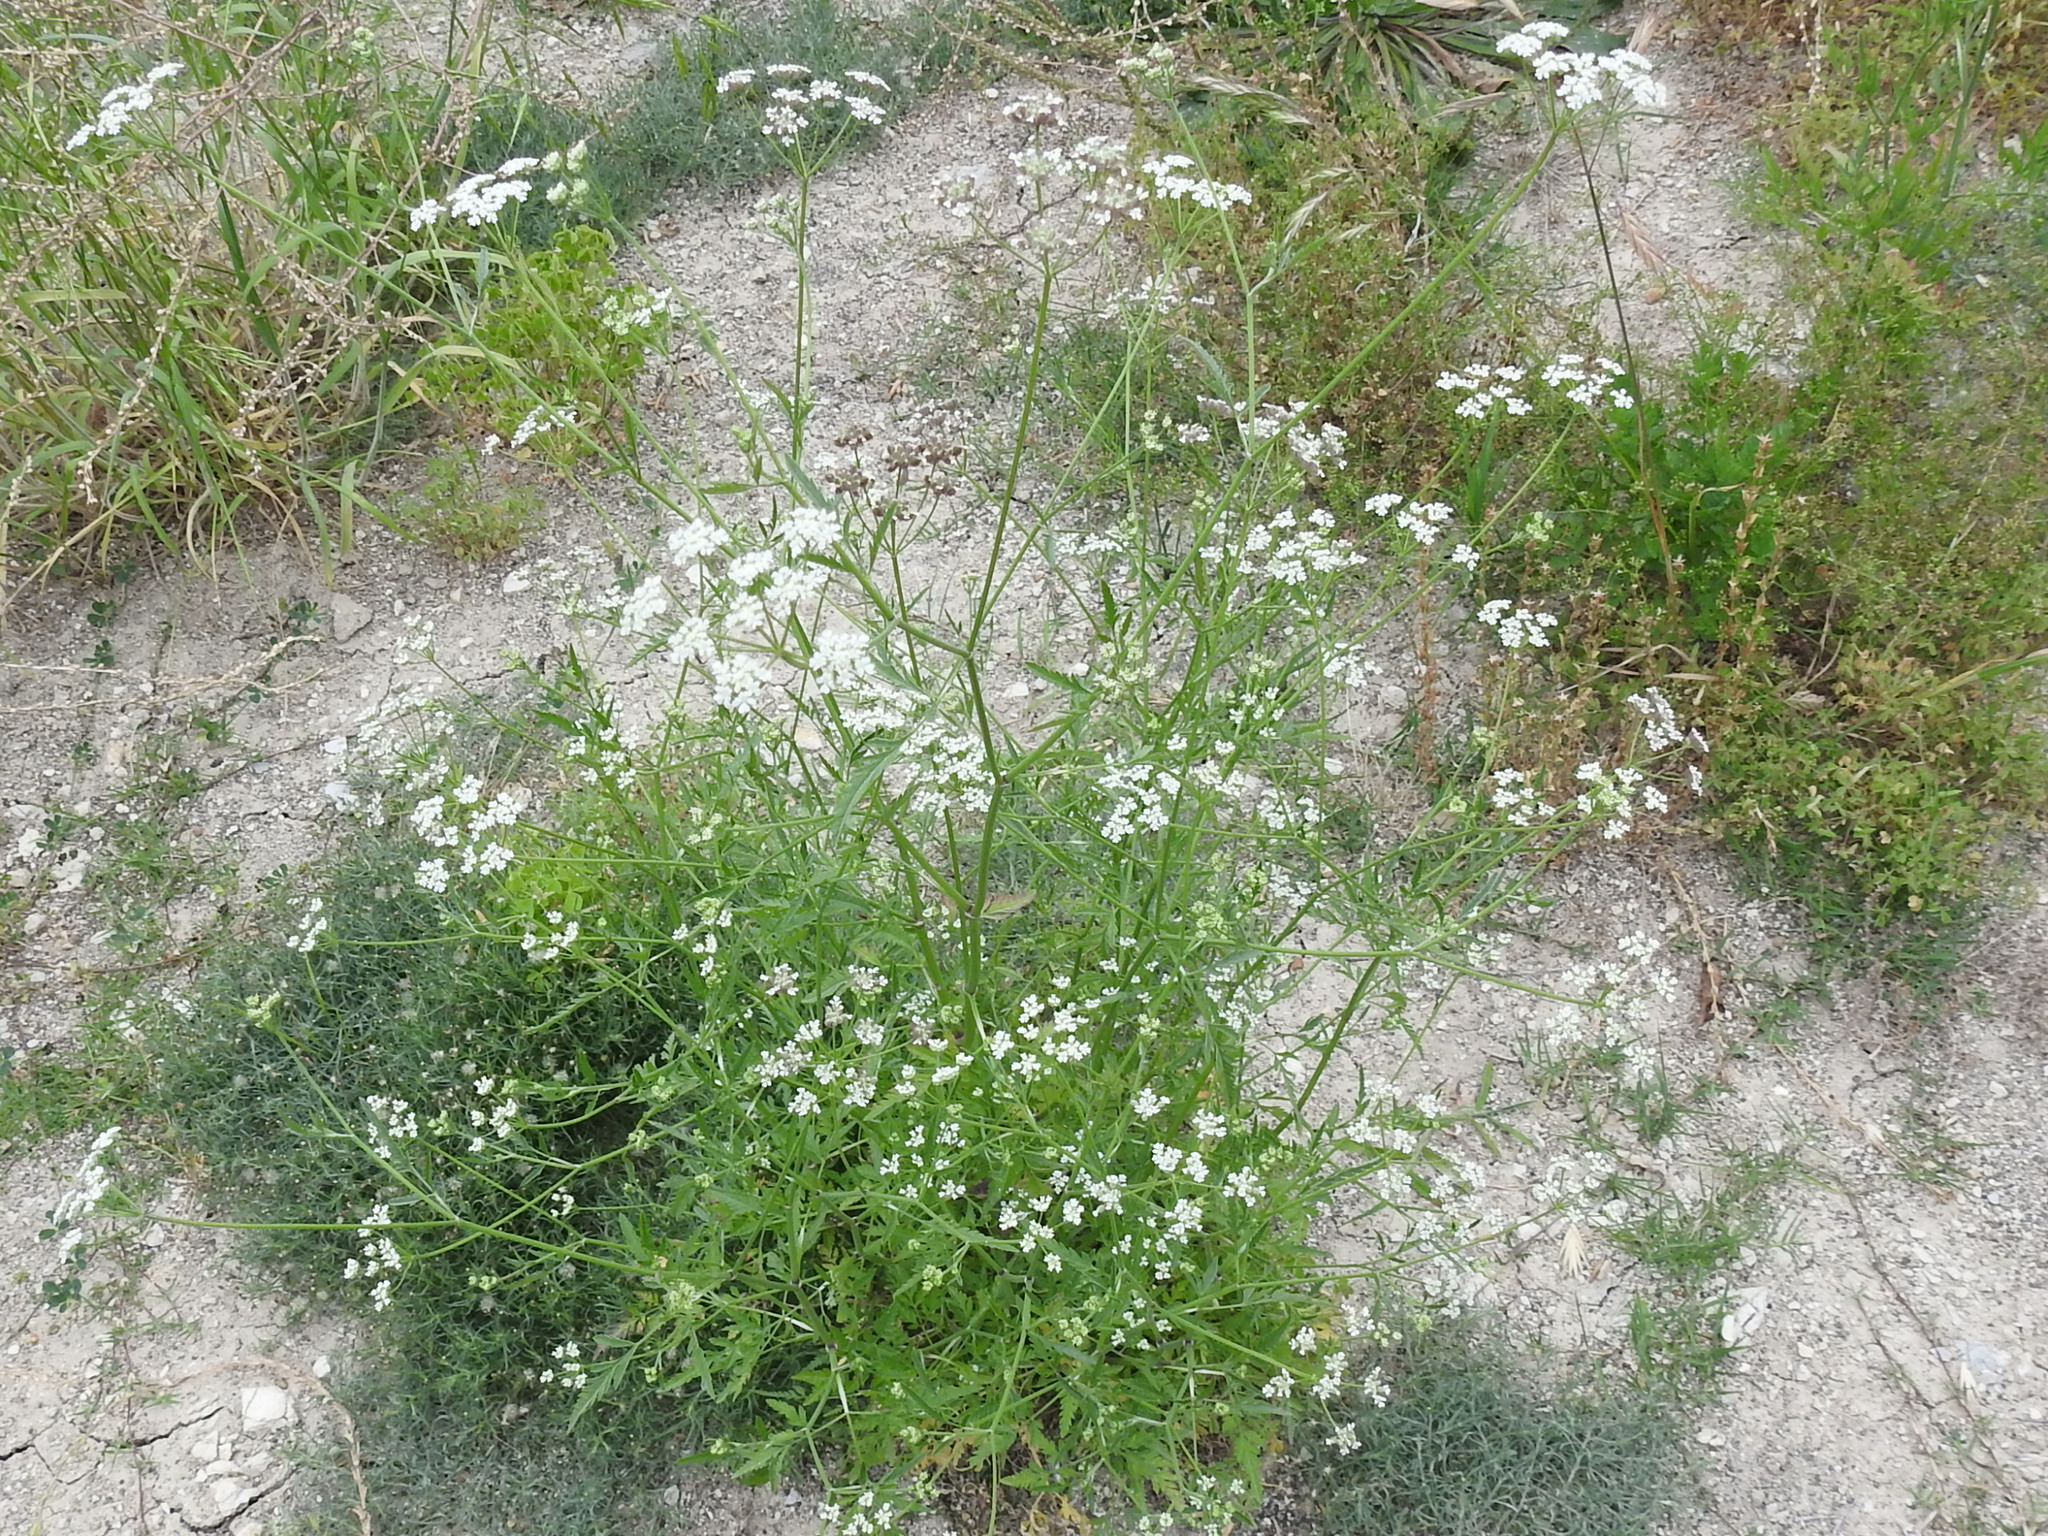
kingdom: Plantae
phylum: Tracheophyta
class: Magnoliopsida
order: Apiales
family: Apiaceae
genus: Torilis
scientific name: Torilis arvensis
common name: Spreading hedge-parsley
